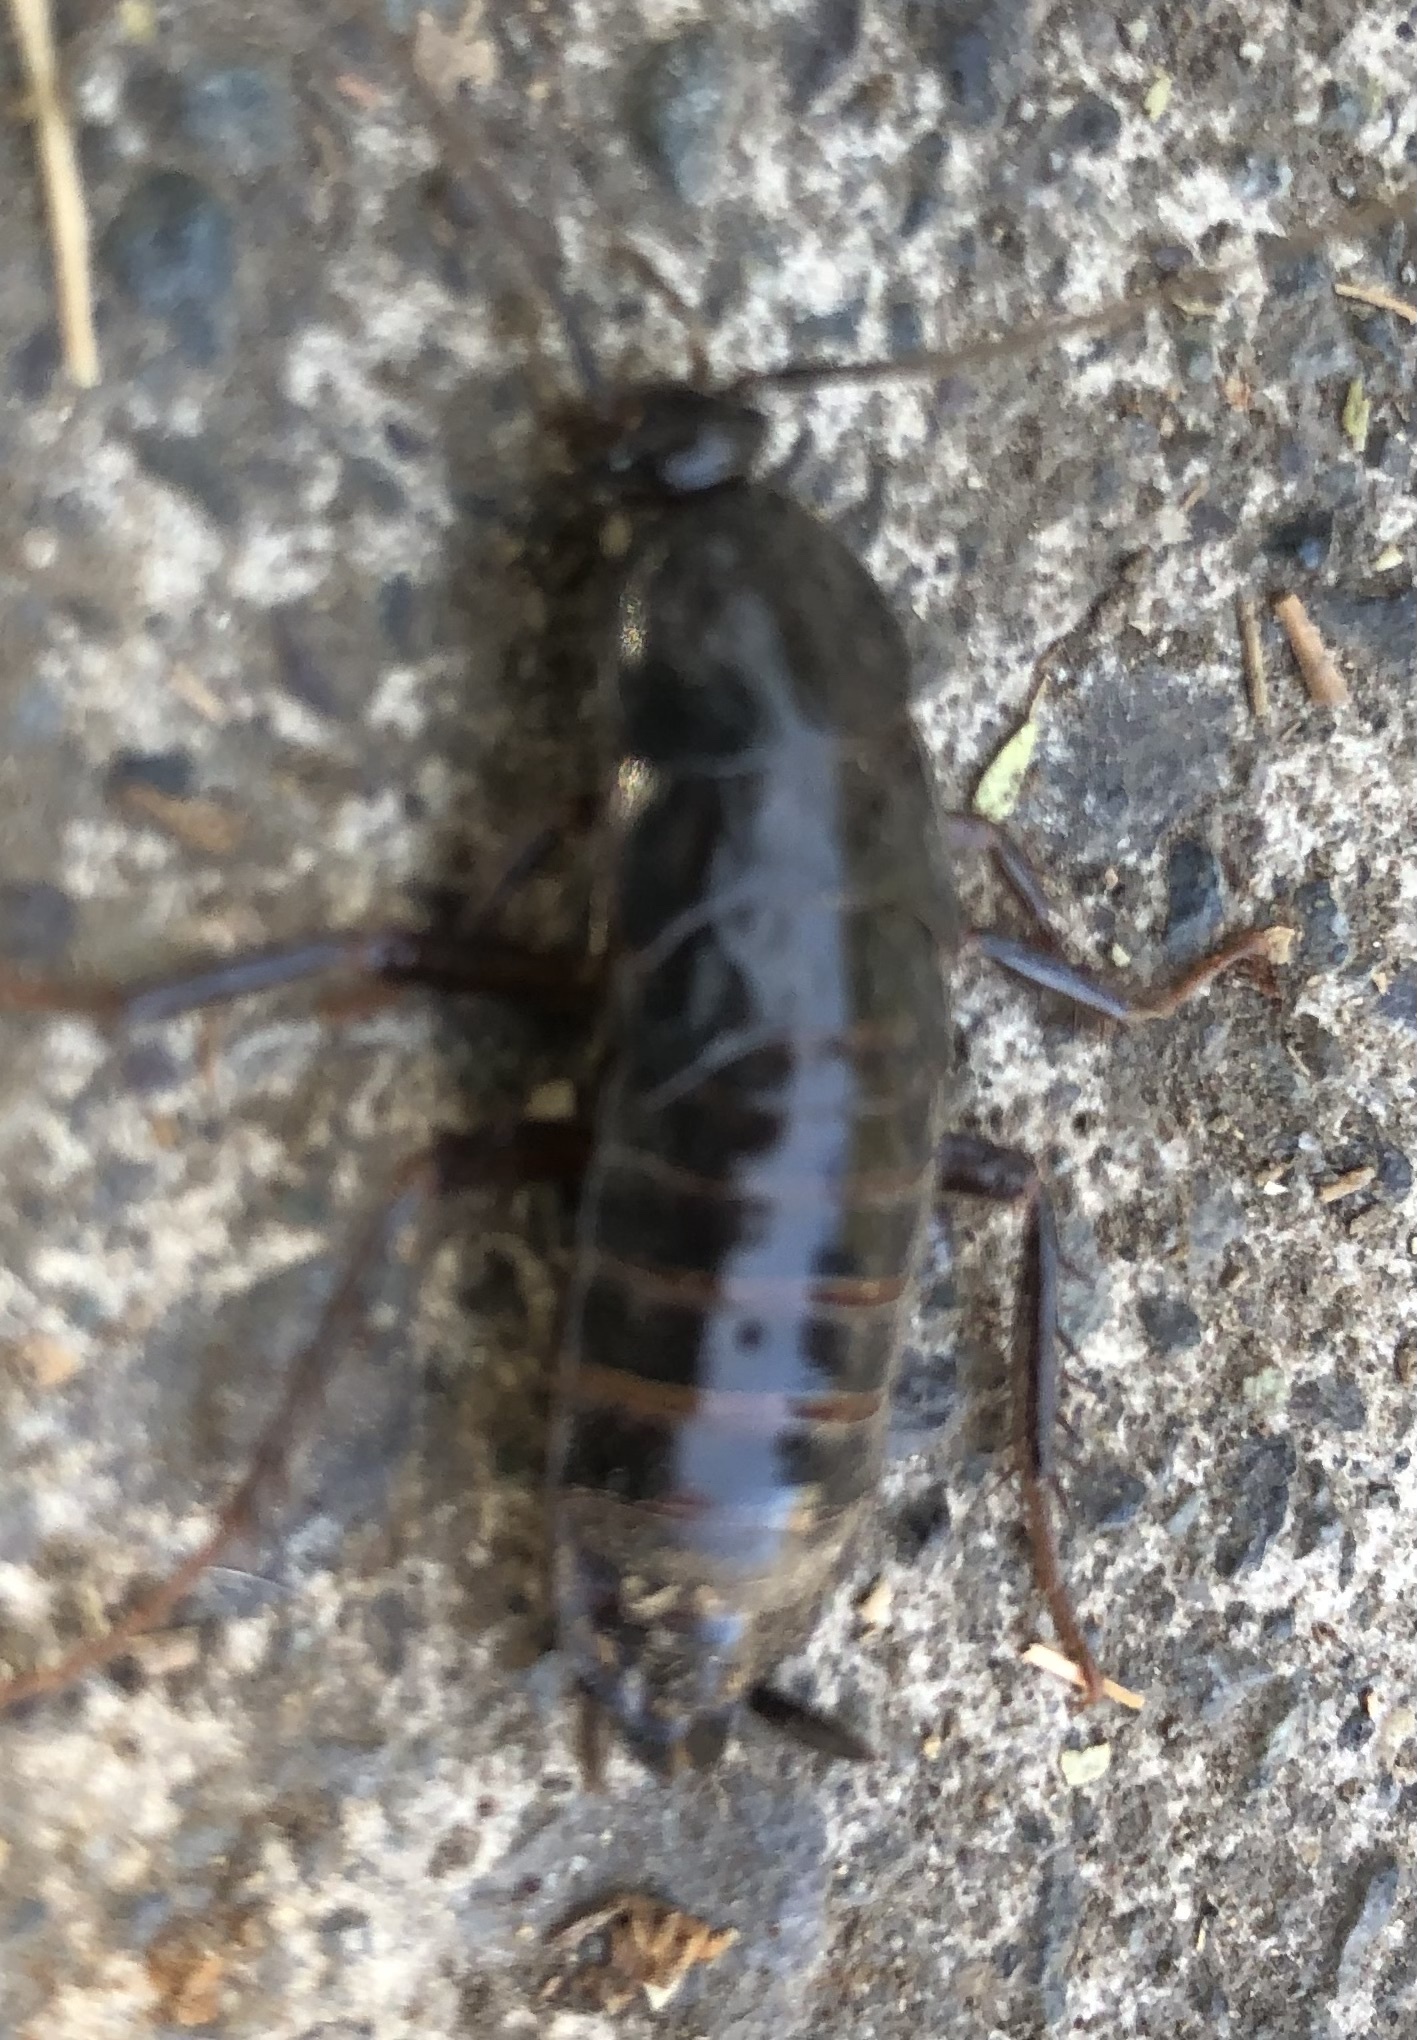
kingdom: Animalia
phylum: Arthropoda
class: Insecta
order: Blattodea
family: Blattidae
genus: Blatta
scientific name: Blatta orientalis
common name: Oriental cockroach
